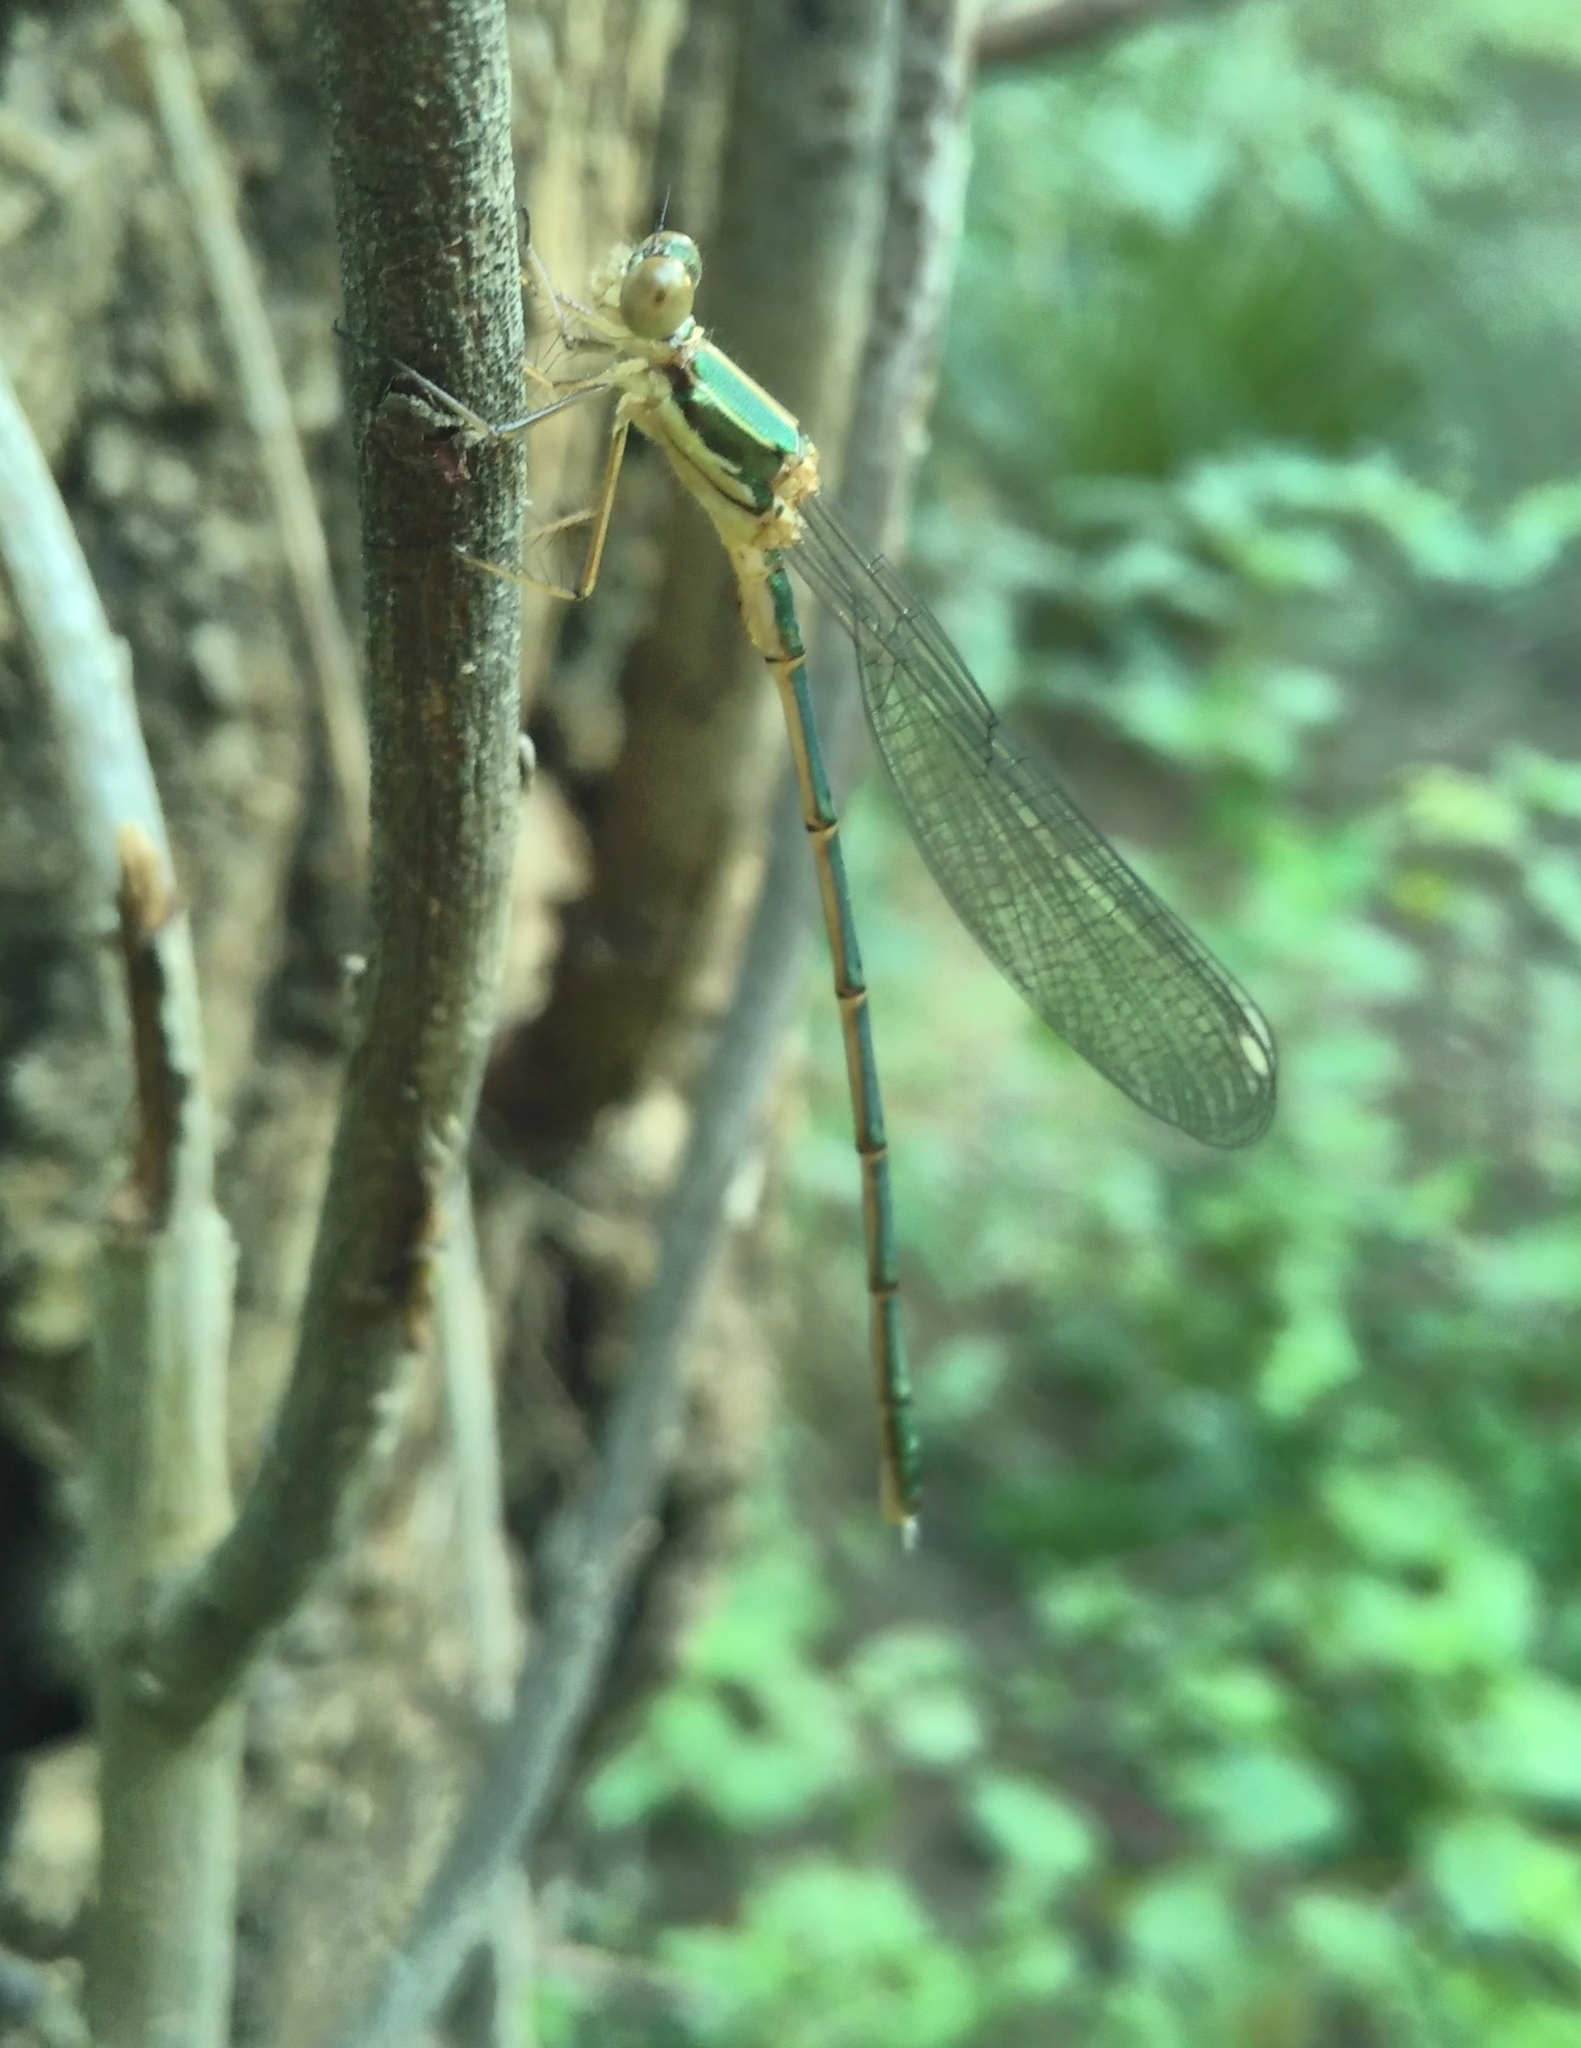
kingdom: Animalia
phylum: Arthropoda
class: Insecta
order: Odonata
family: Lestidae
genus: Chalcolestes
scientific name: Chalcolestes viridis
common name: Green emerald damselfly
